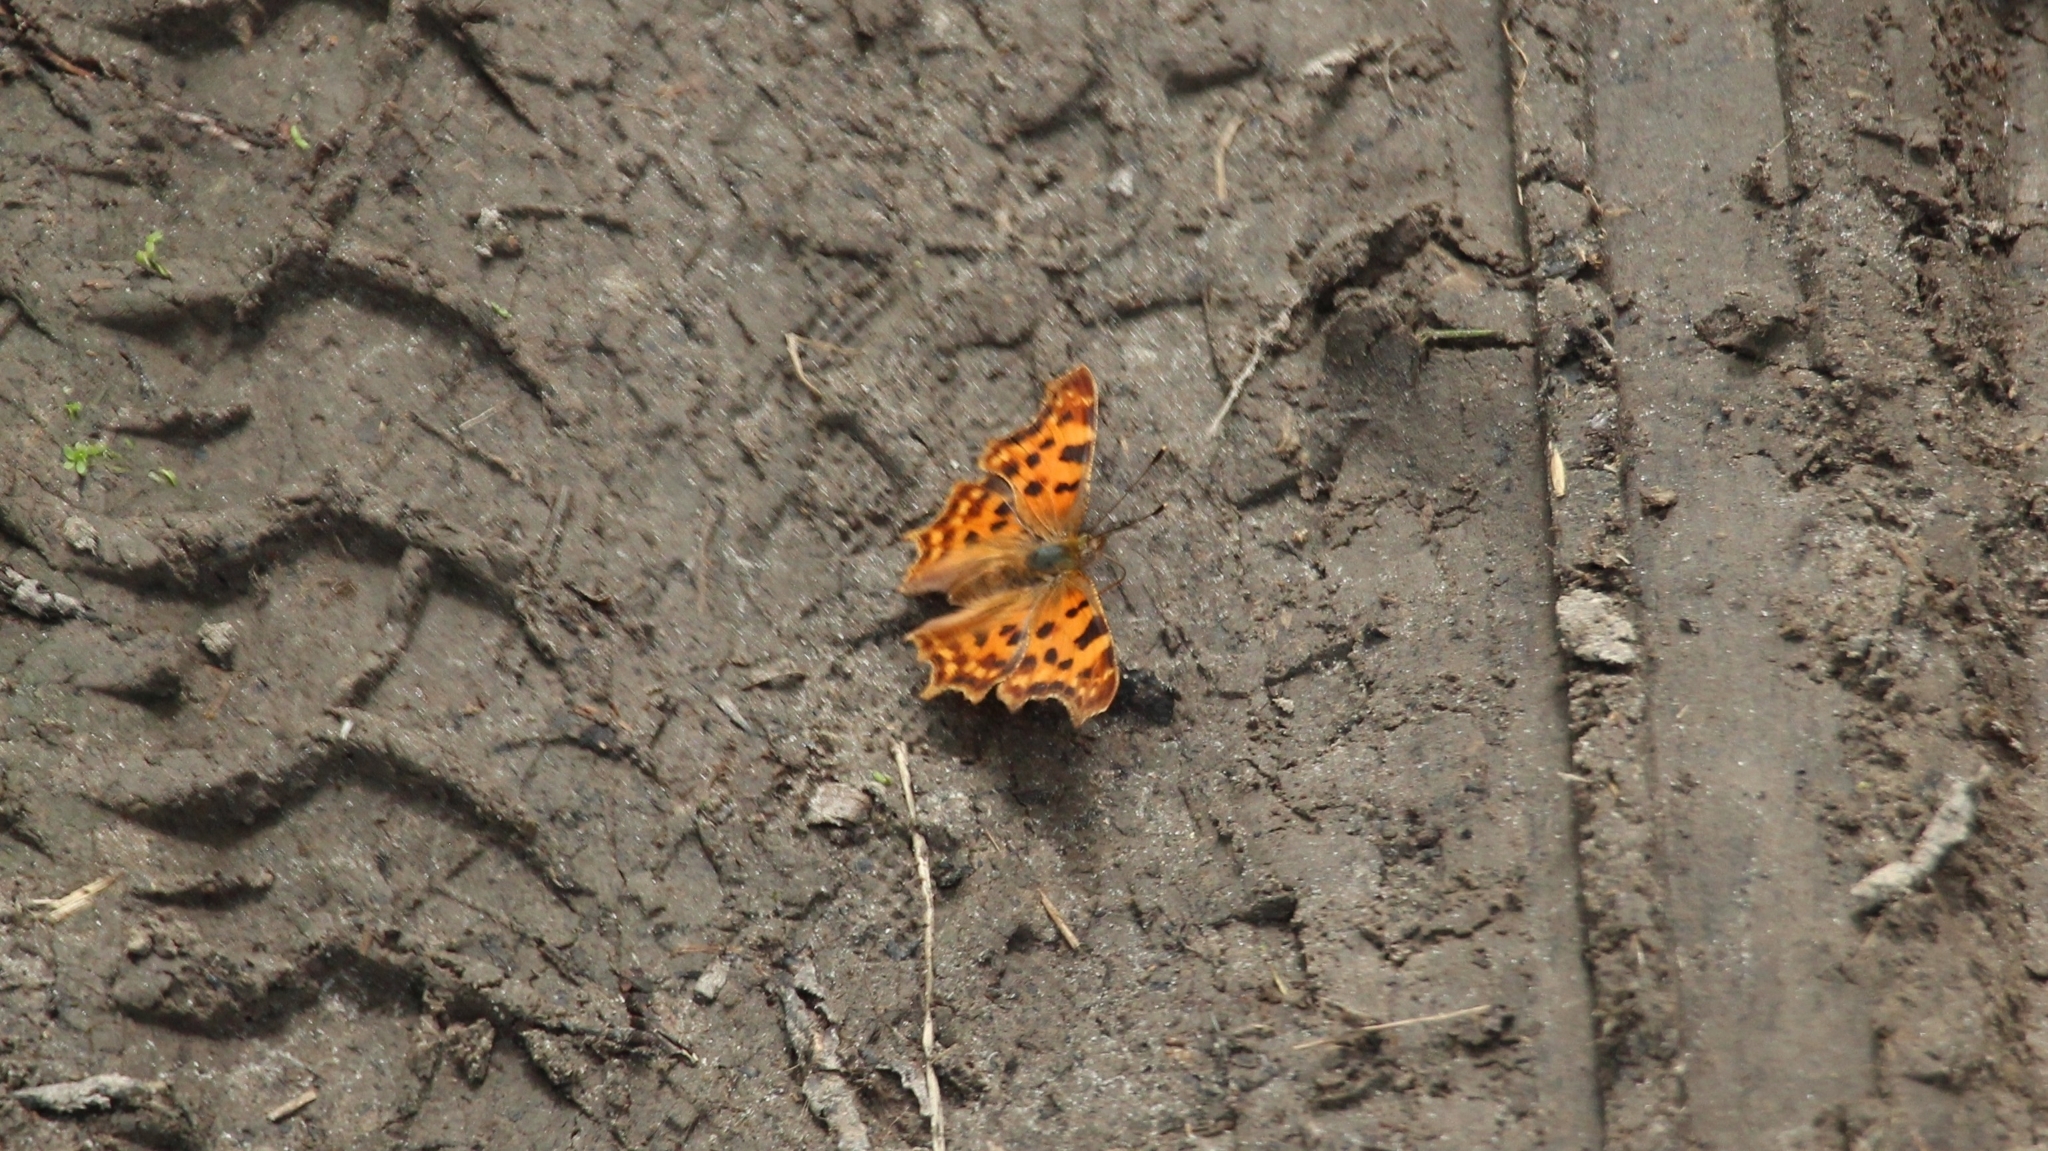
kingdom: Animalia
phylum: Arthropoda
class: Insecta
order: Lepidoptera
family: Nymphalidae
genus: Polygonia
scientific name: Polygonia c-album
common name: Comma
